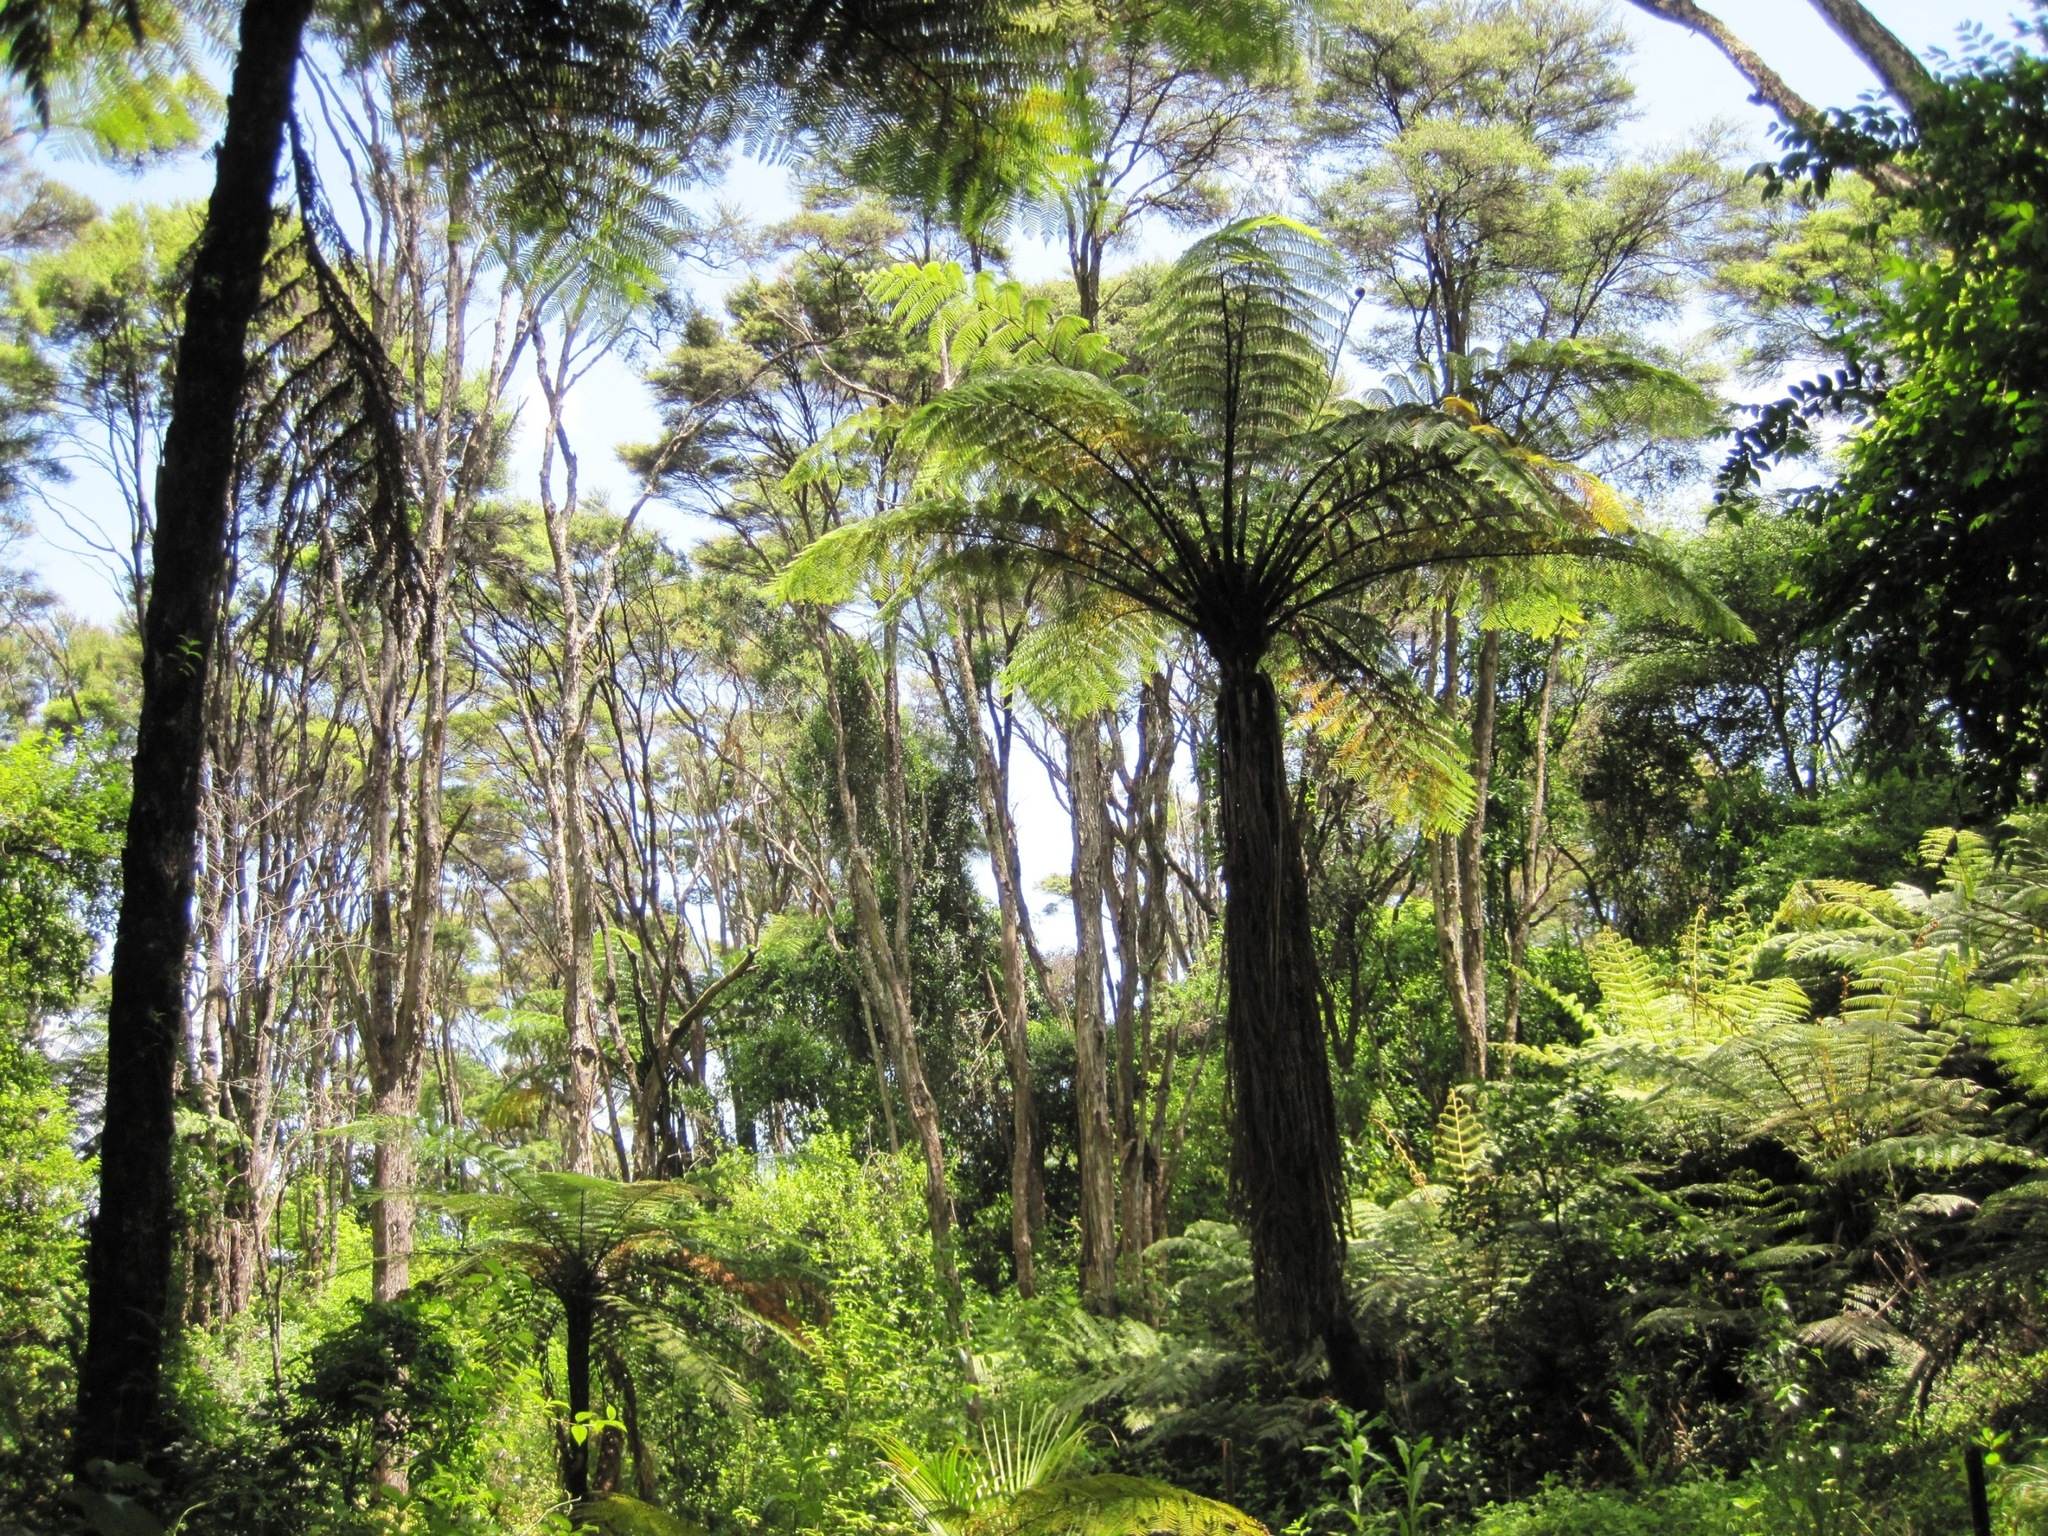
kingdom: Plantae
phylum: Tracheophyta
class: Polypodiopsida
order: Cyatheales
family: Cyatheaceae
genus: Sphaeropteris
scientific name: Sphaeropteris medullaris
